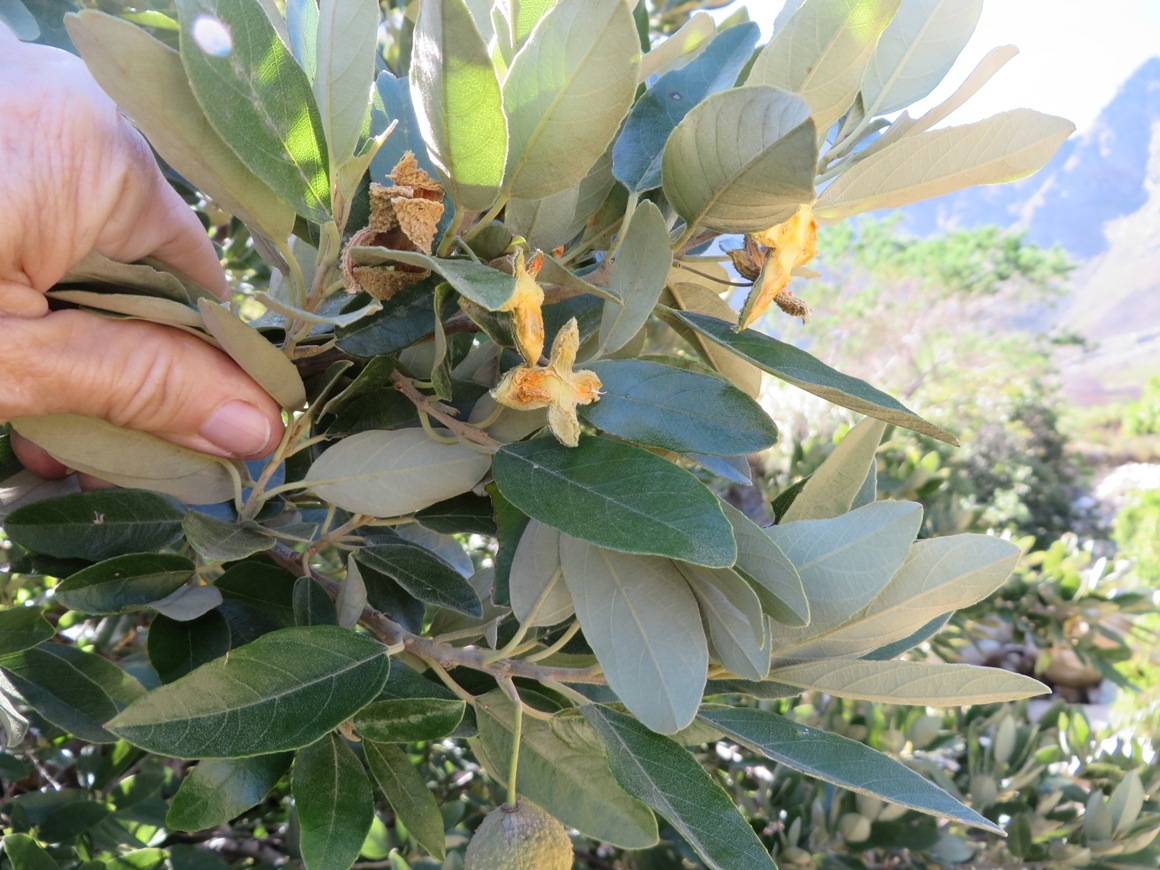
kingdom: Plantae
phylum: Tracheophyta
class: Magnoliopsida
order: Malpighiales
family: Achariaceae
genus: Kiggelaria
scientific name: Kiggelaria africana
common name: Wild peach
